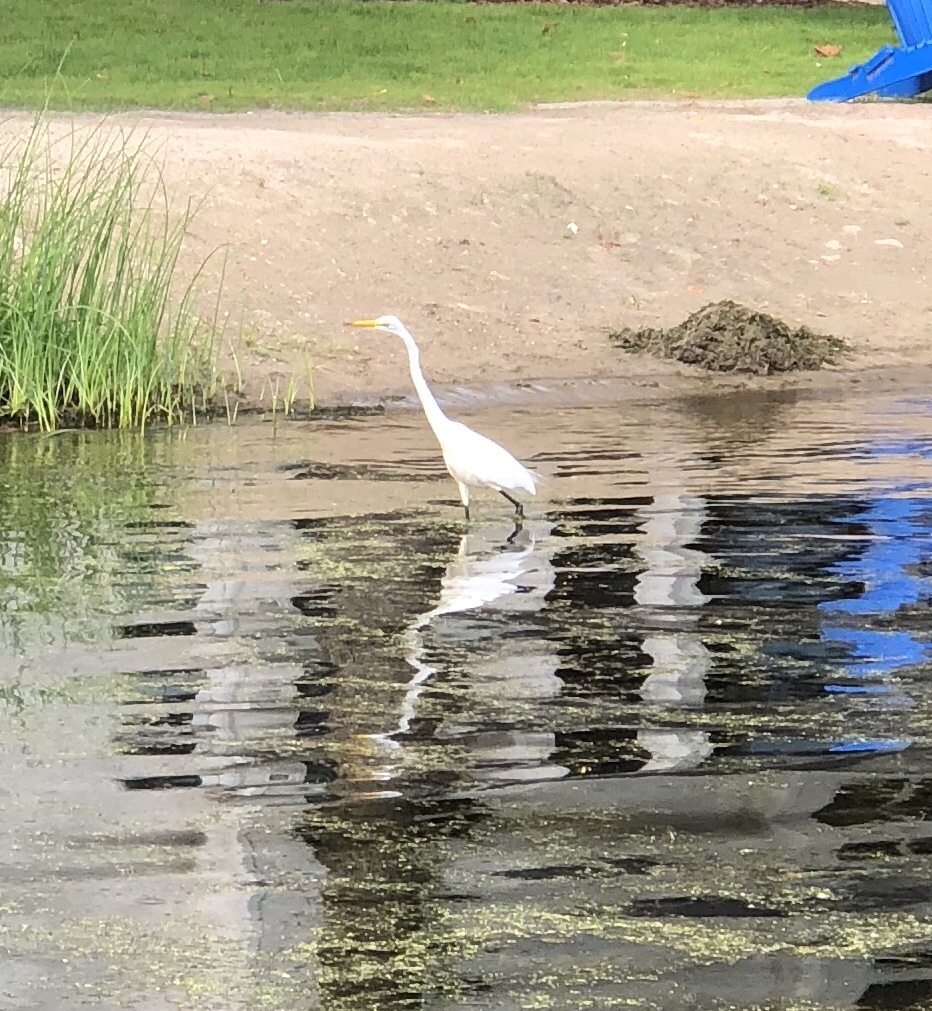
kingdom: Animalia
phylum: Chordata
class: Aves
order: Pelecaniformes
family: Ardeidae
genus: Ardea
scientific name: Ardea alba
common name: Great egret
